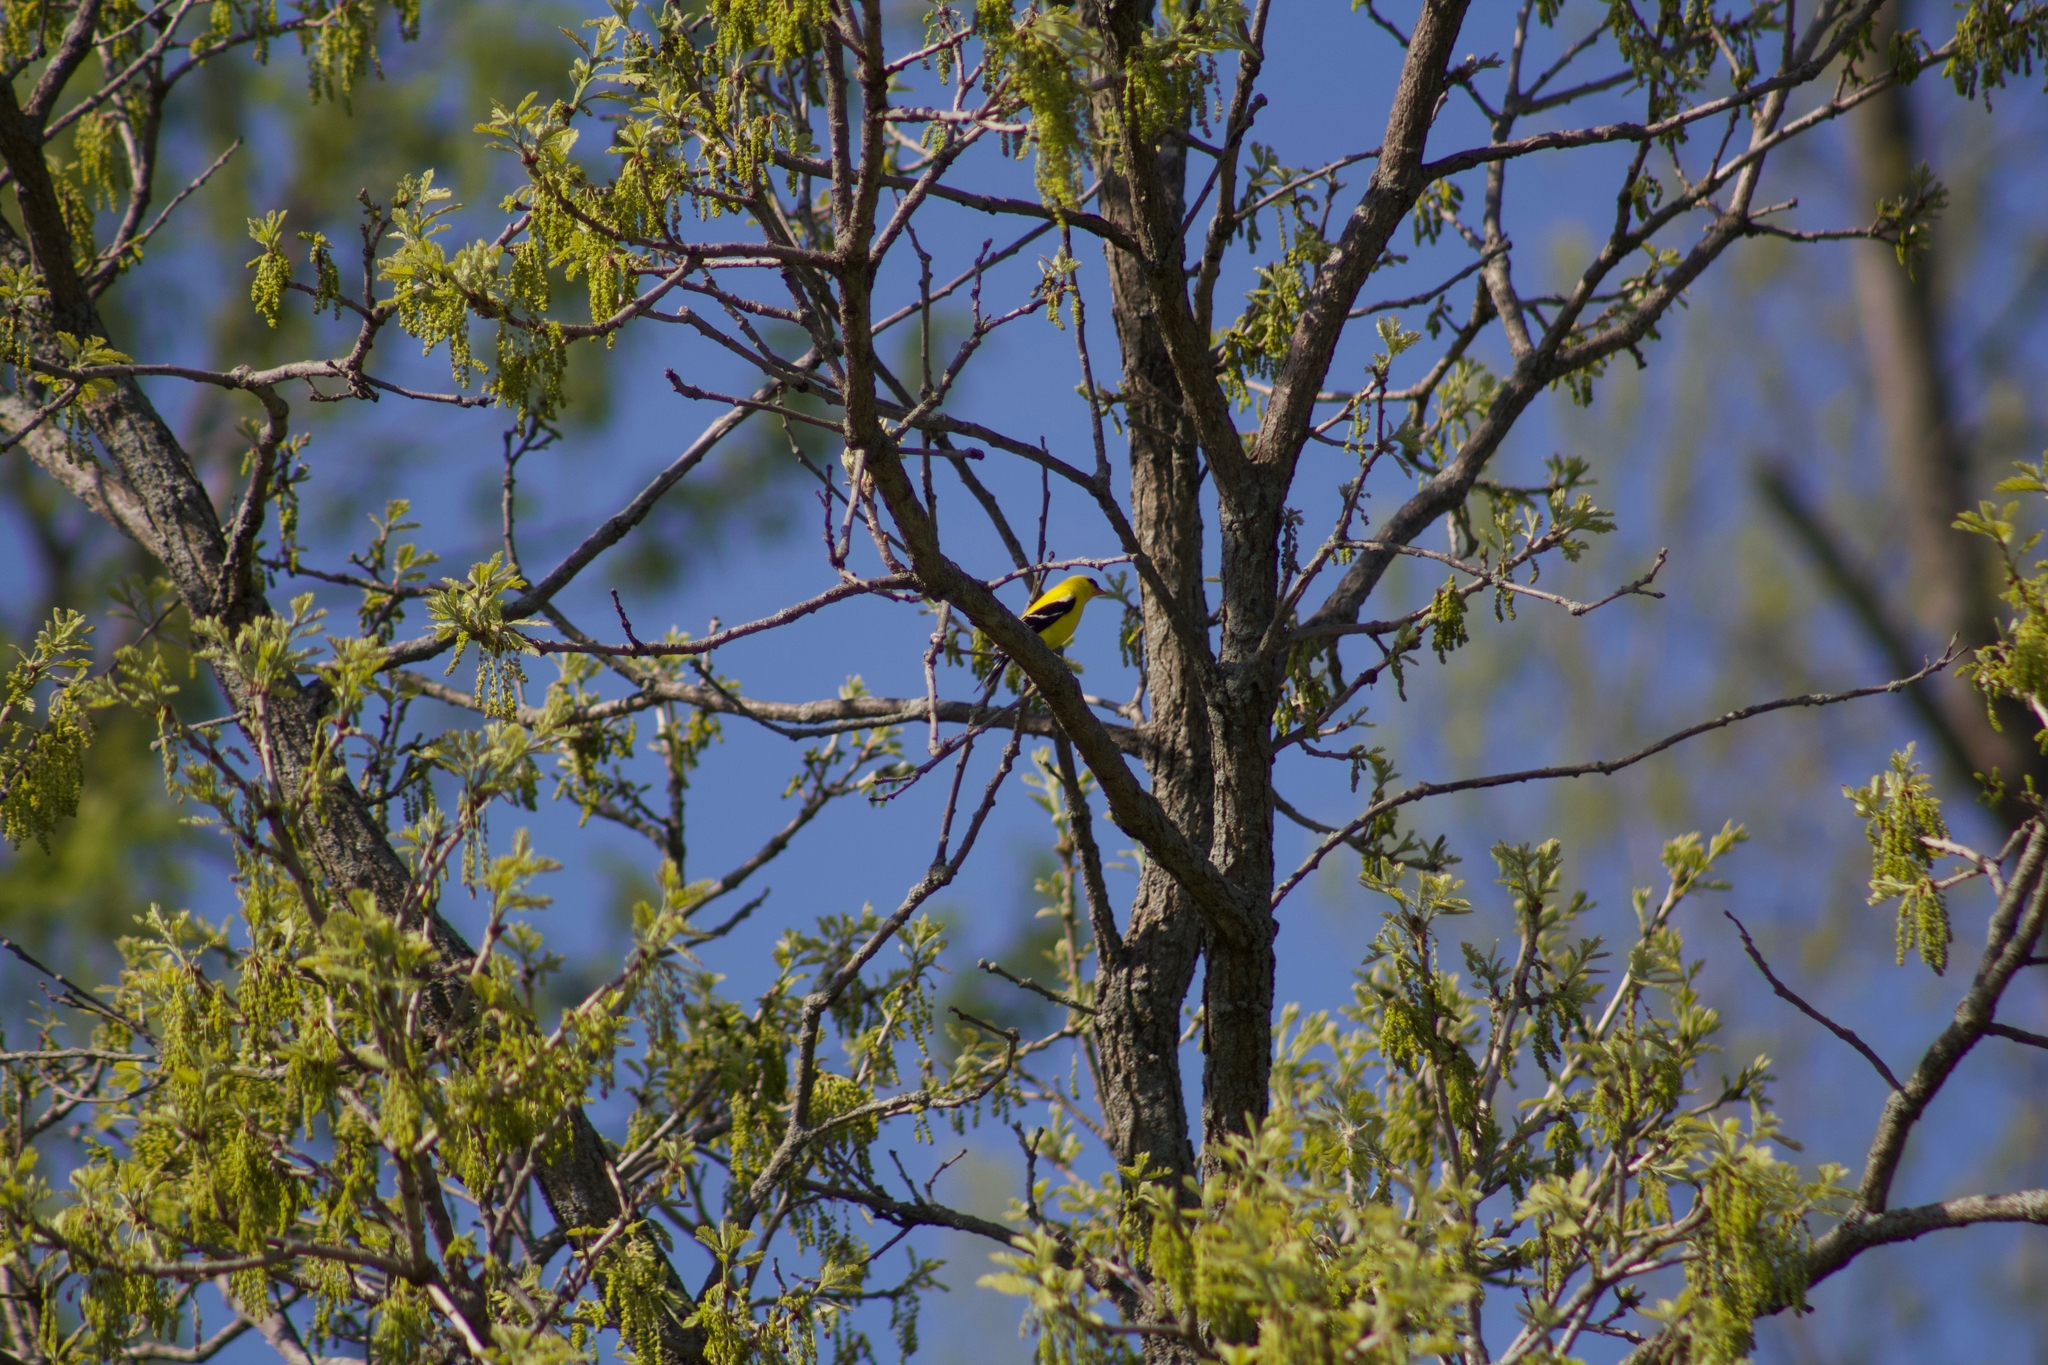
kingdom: Animalia
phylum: Chordata
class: Aves
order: Passeriformes
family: Fringillidae
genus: Spinus
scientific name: Spinus tristis
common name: American goldfinch
